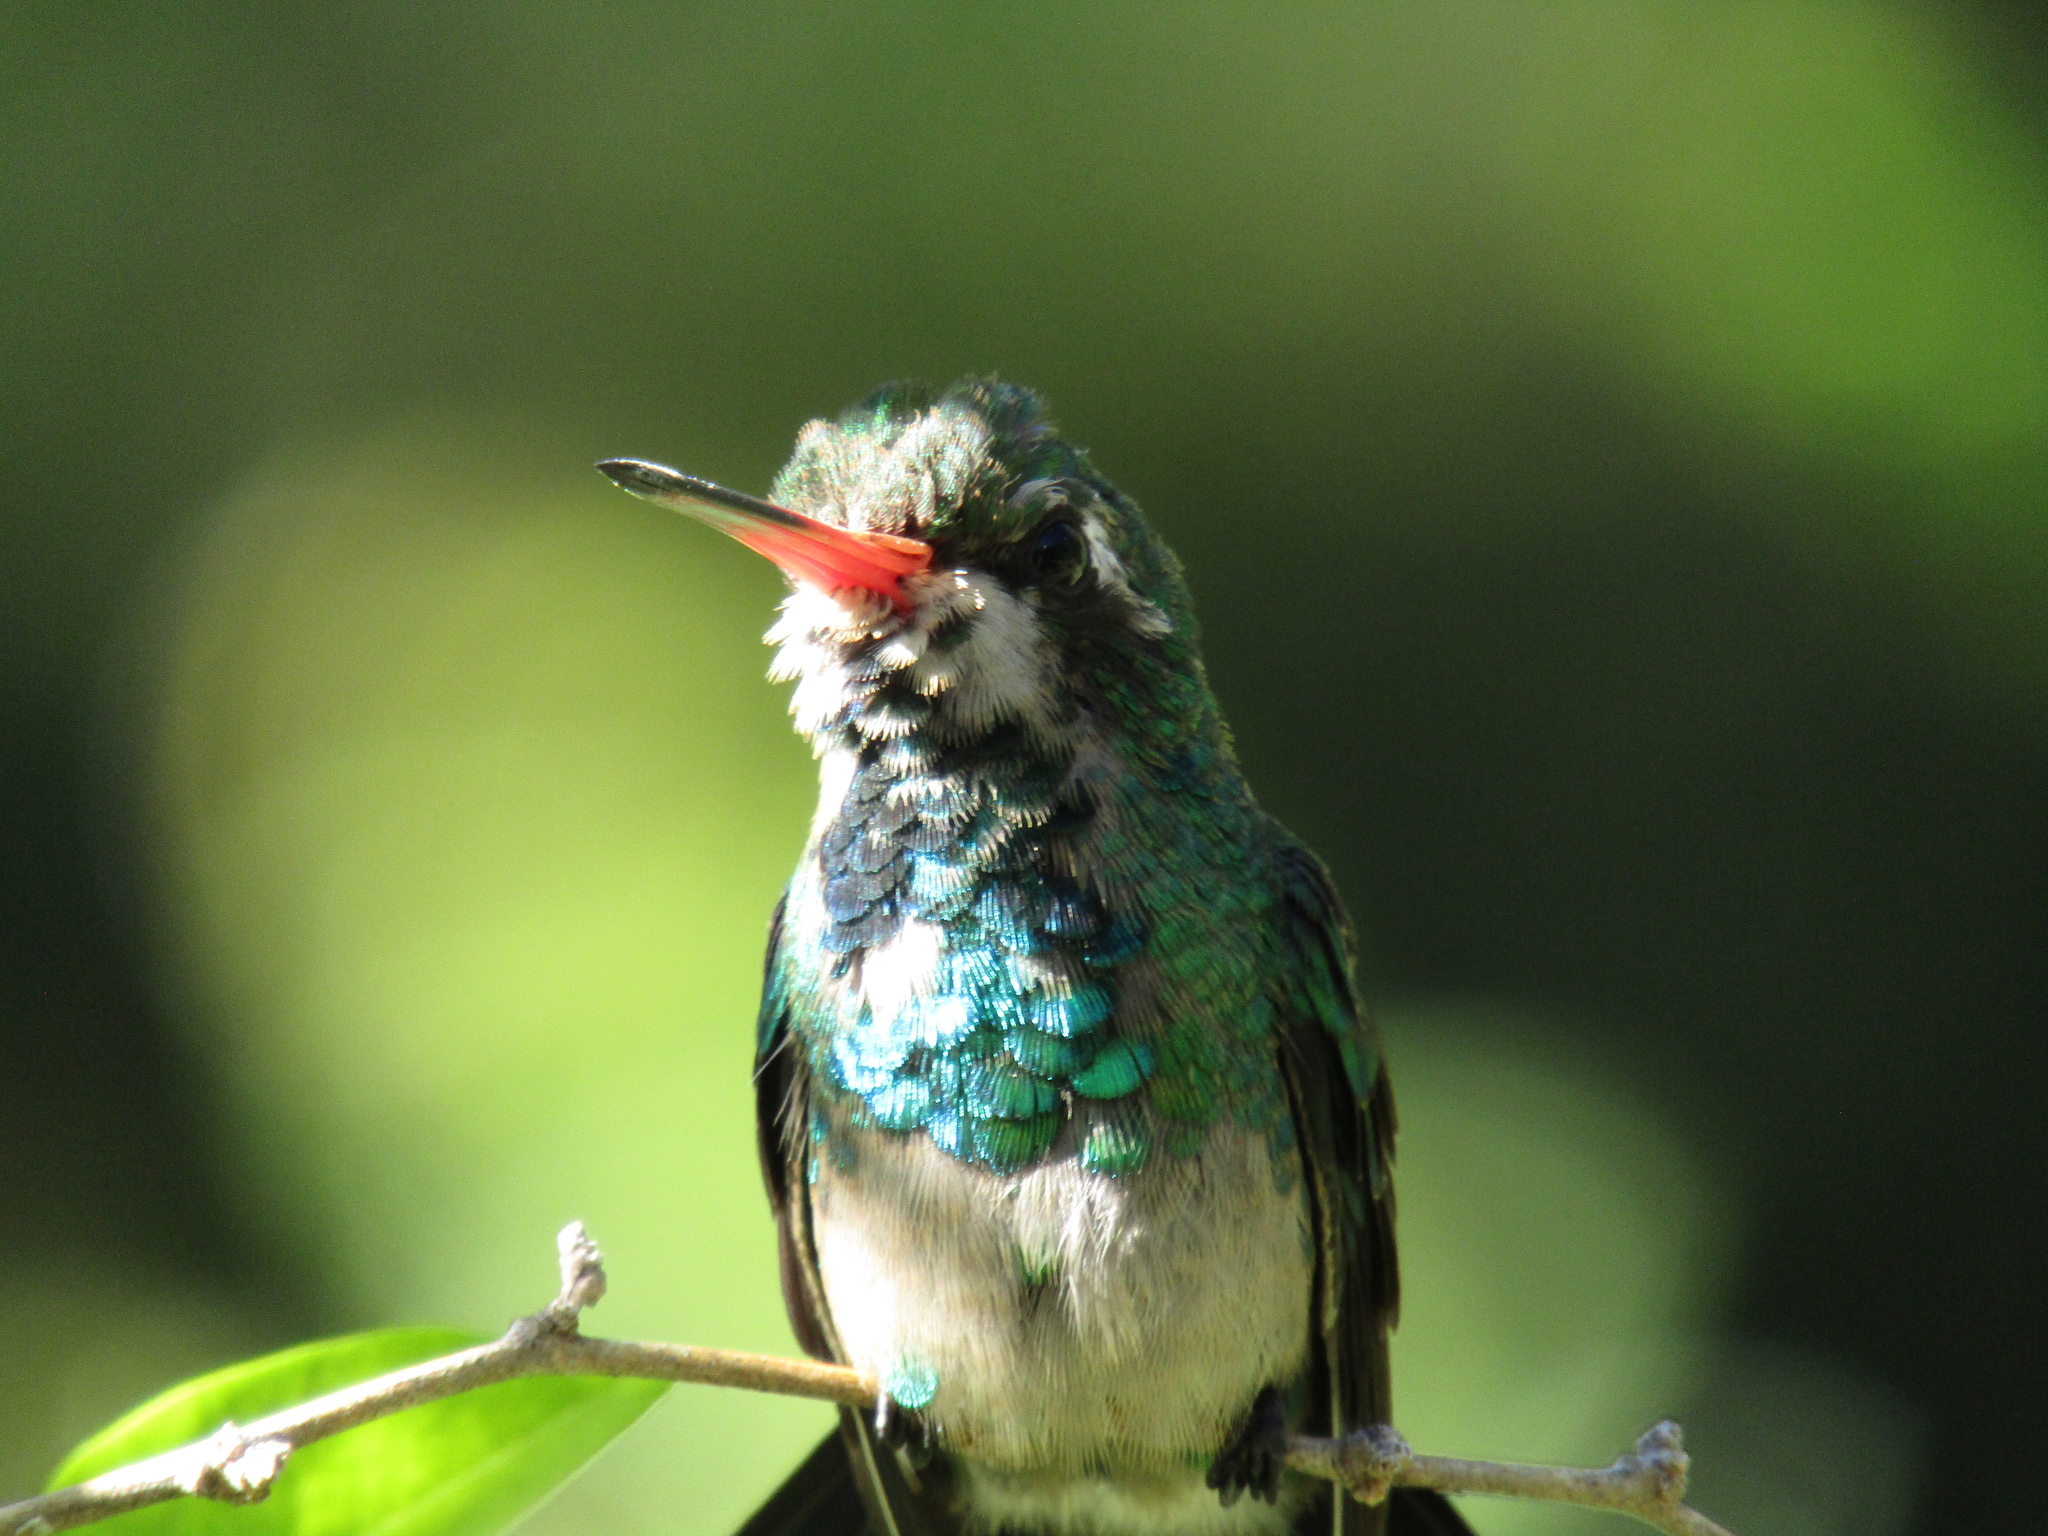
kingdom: Animalia
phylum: Chordata
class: Aves
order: Apodiformes
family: Trochilidae
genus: Chlorostilbon
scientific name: Chlorostilbon lucidus
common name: Glittering-bellied emerald
